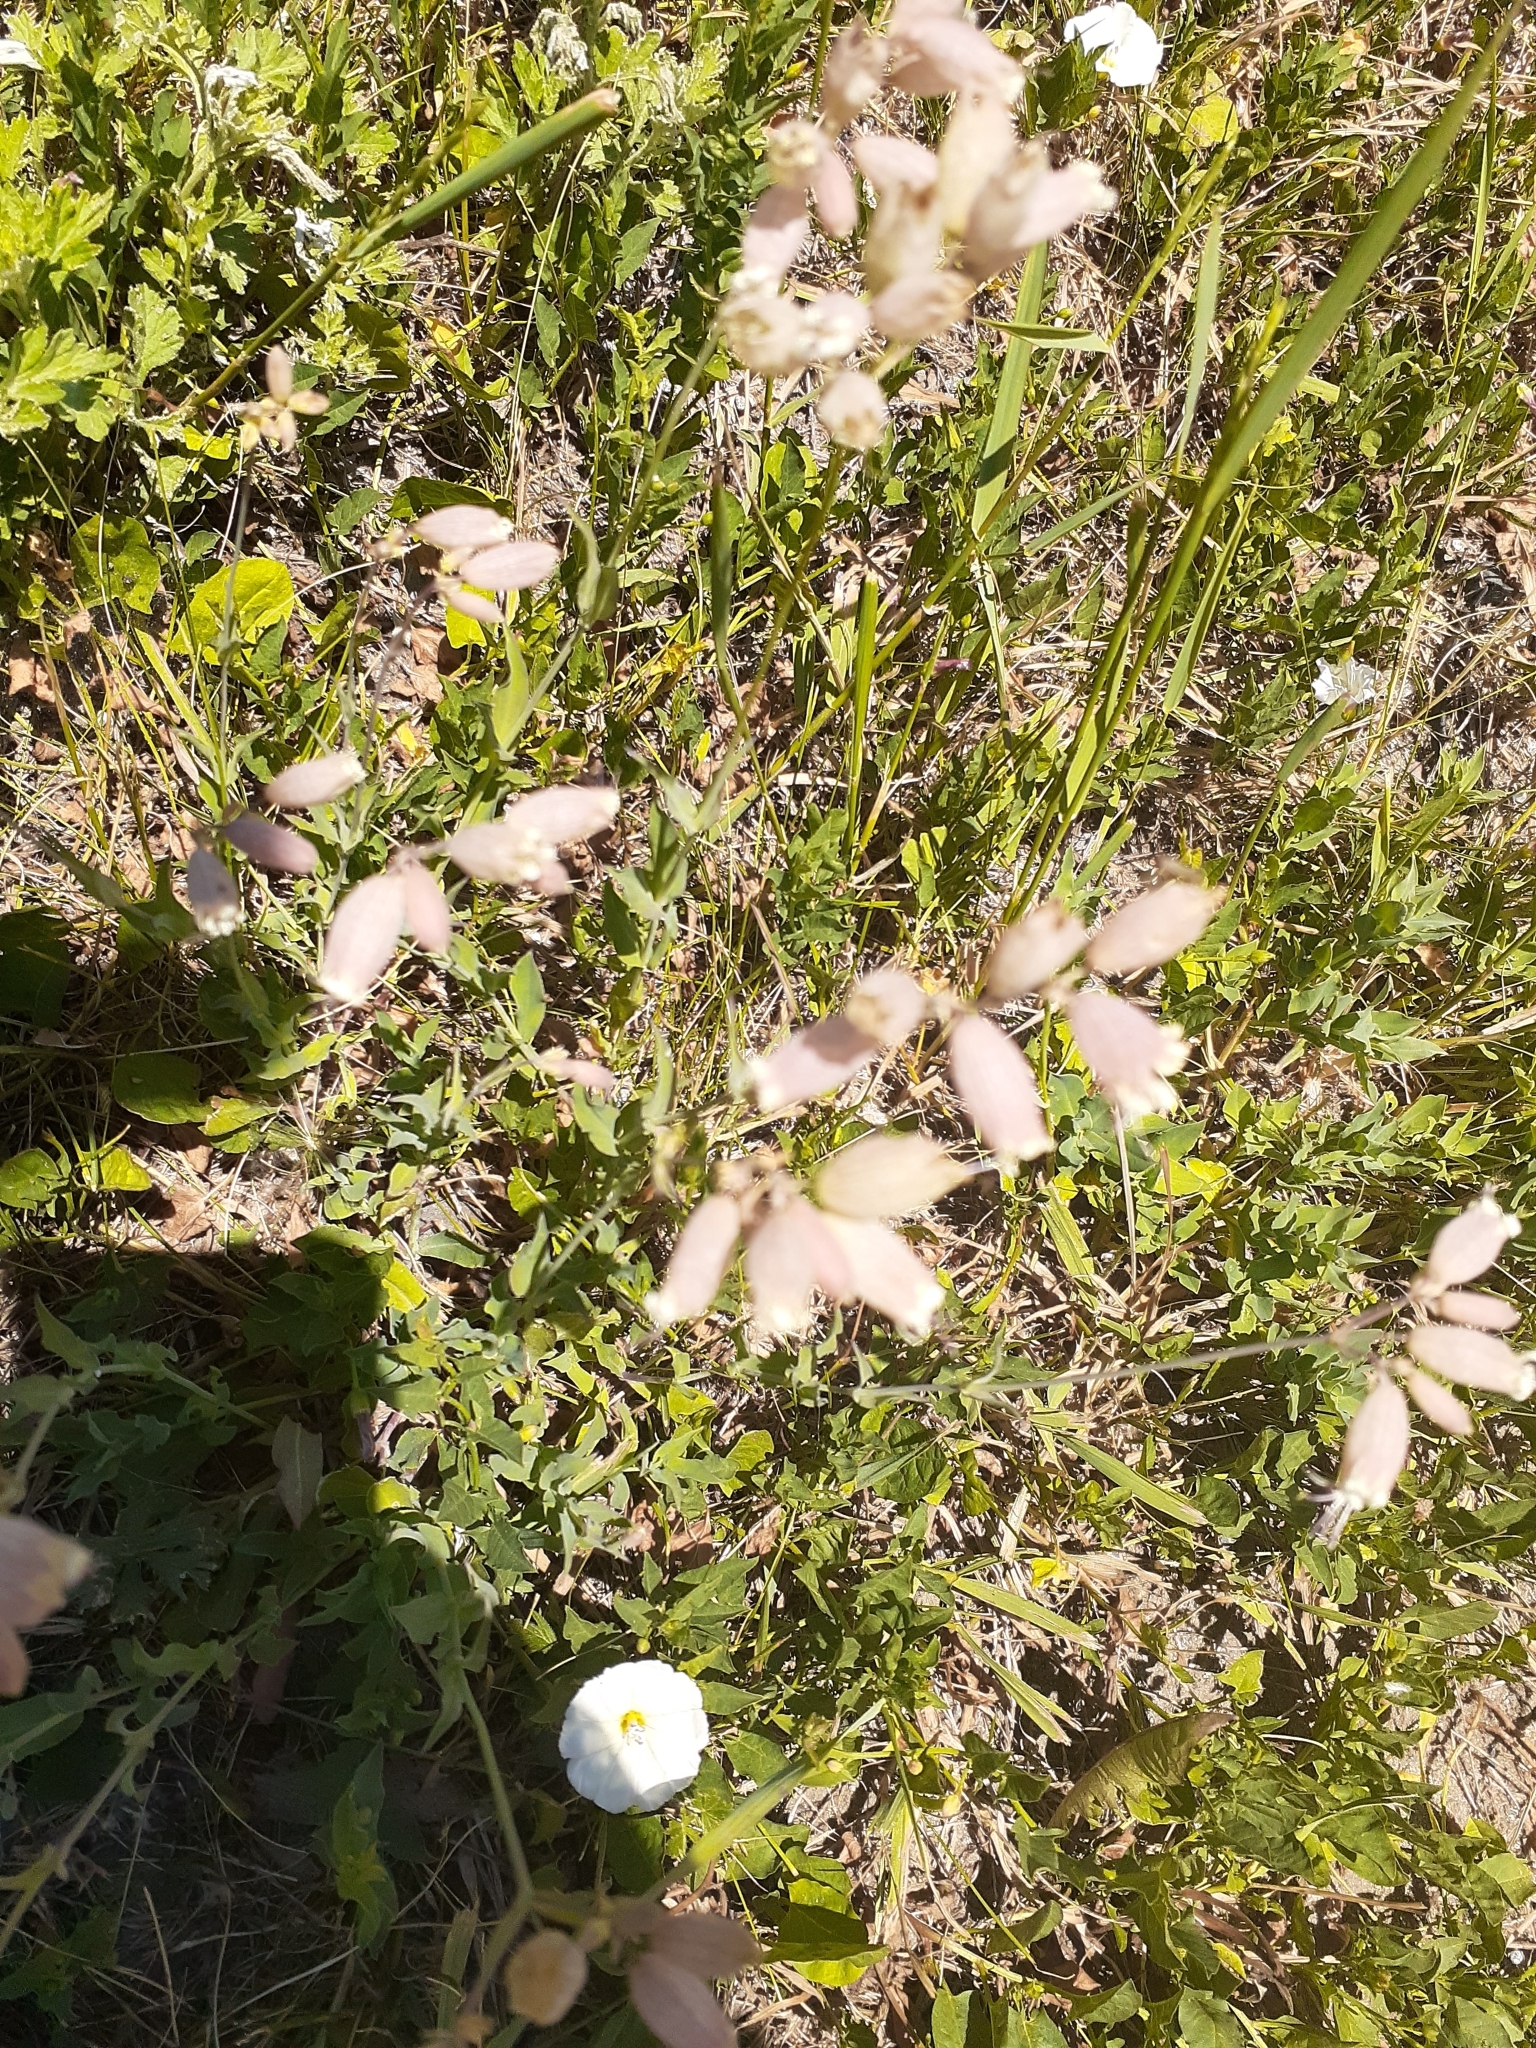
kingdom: Plantae
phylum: Tracheophyta
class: Magnoliopsida
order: Caryophyllales
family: Caryophyllaceae
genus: Silene
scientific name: Silene vulgaris
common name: Bladder campion
